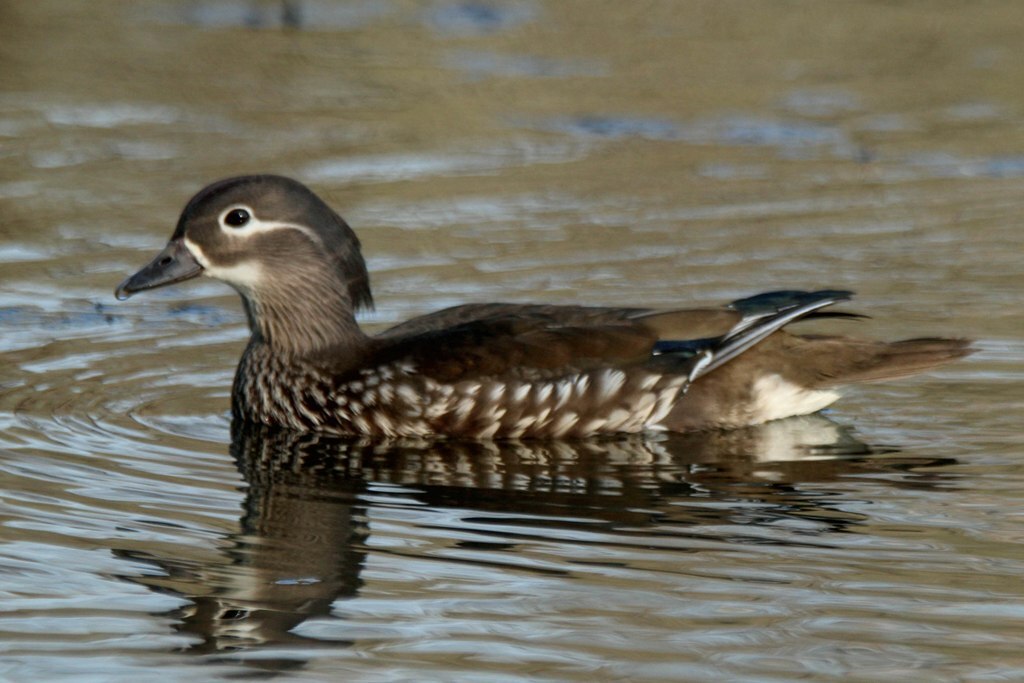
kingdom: Animalia
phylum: Chordata
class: Aves
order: Anseriformes
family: Anatidae
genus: Aix
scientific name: Aix galericulata
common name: Mandarin duck
